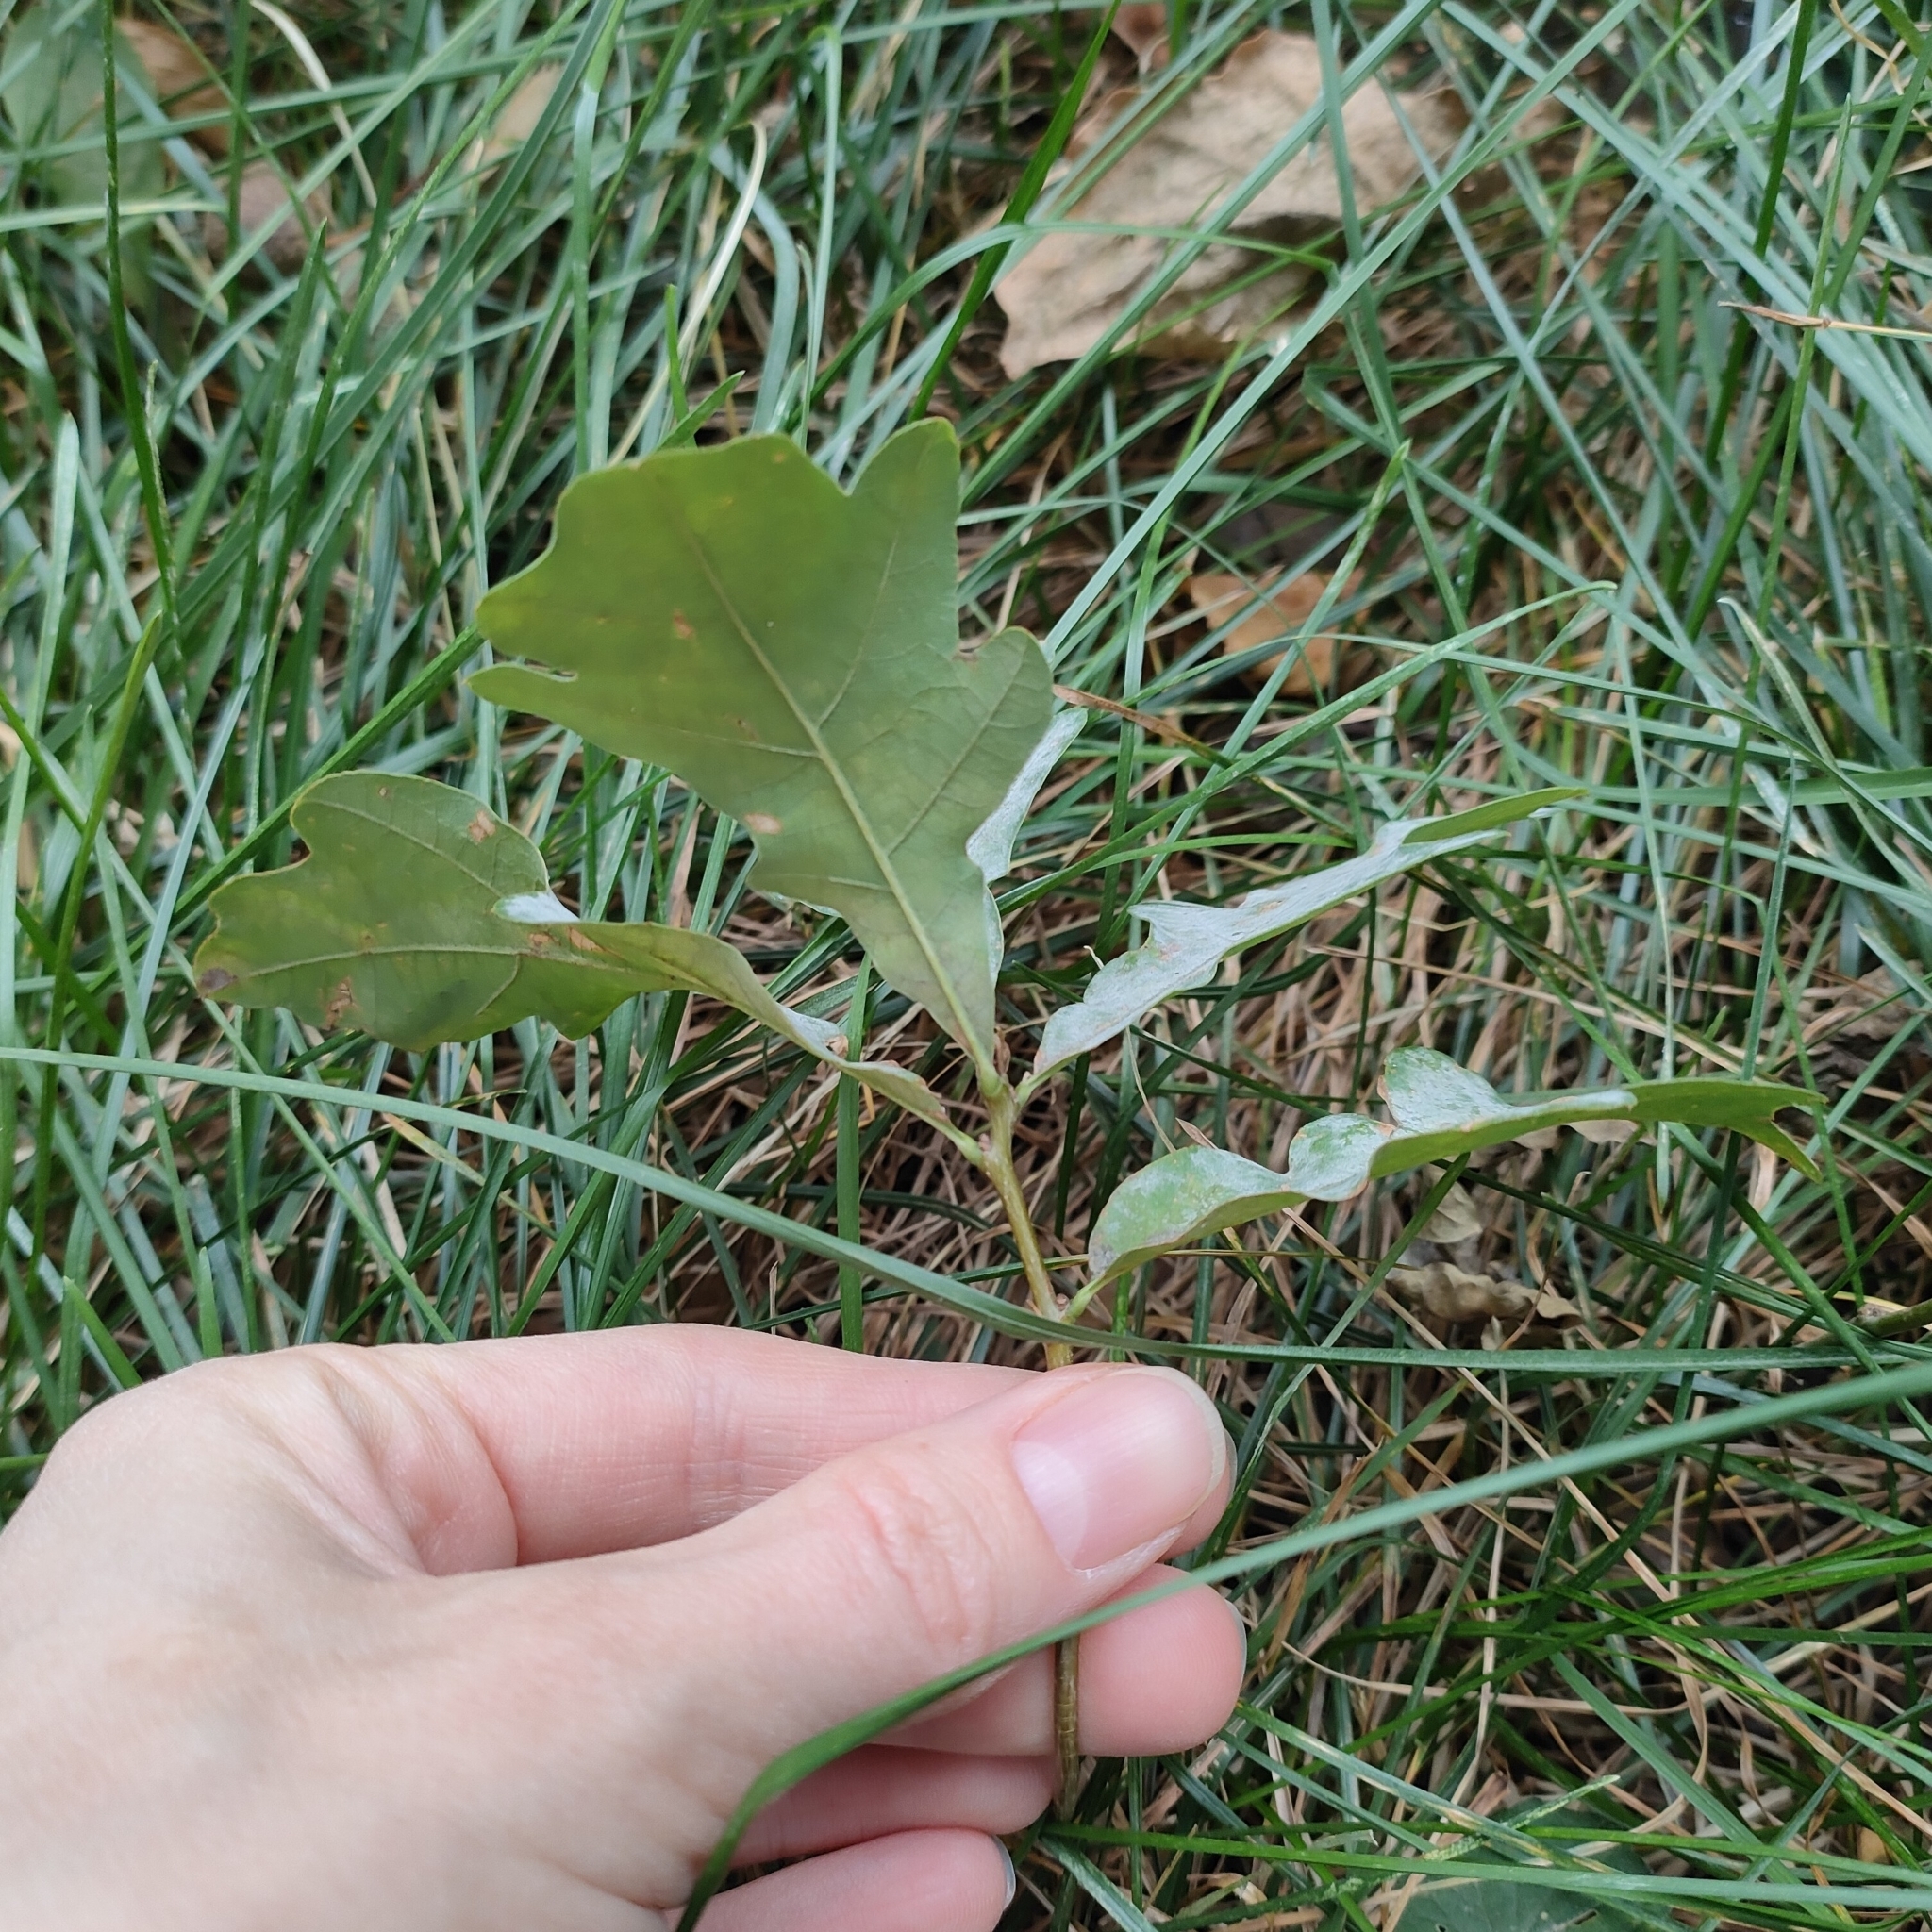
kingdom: Fungi
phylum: Ascomycota
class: Leotiomycetes
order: Helotiales
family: Erysiphaceae
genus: Erysiphe
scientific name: Erysiphe alphitoides
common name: Oak mildew
